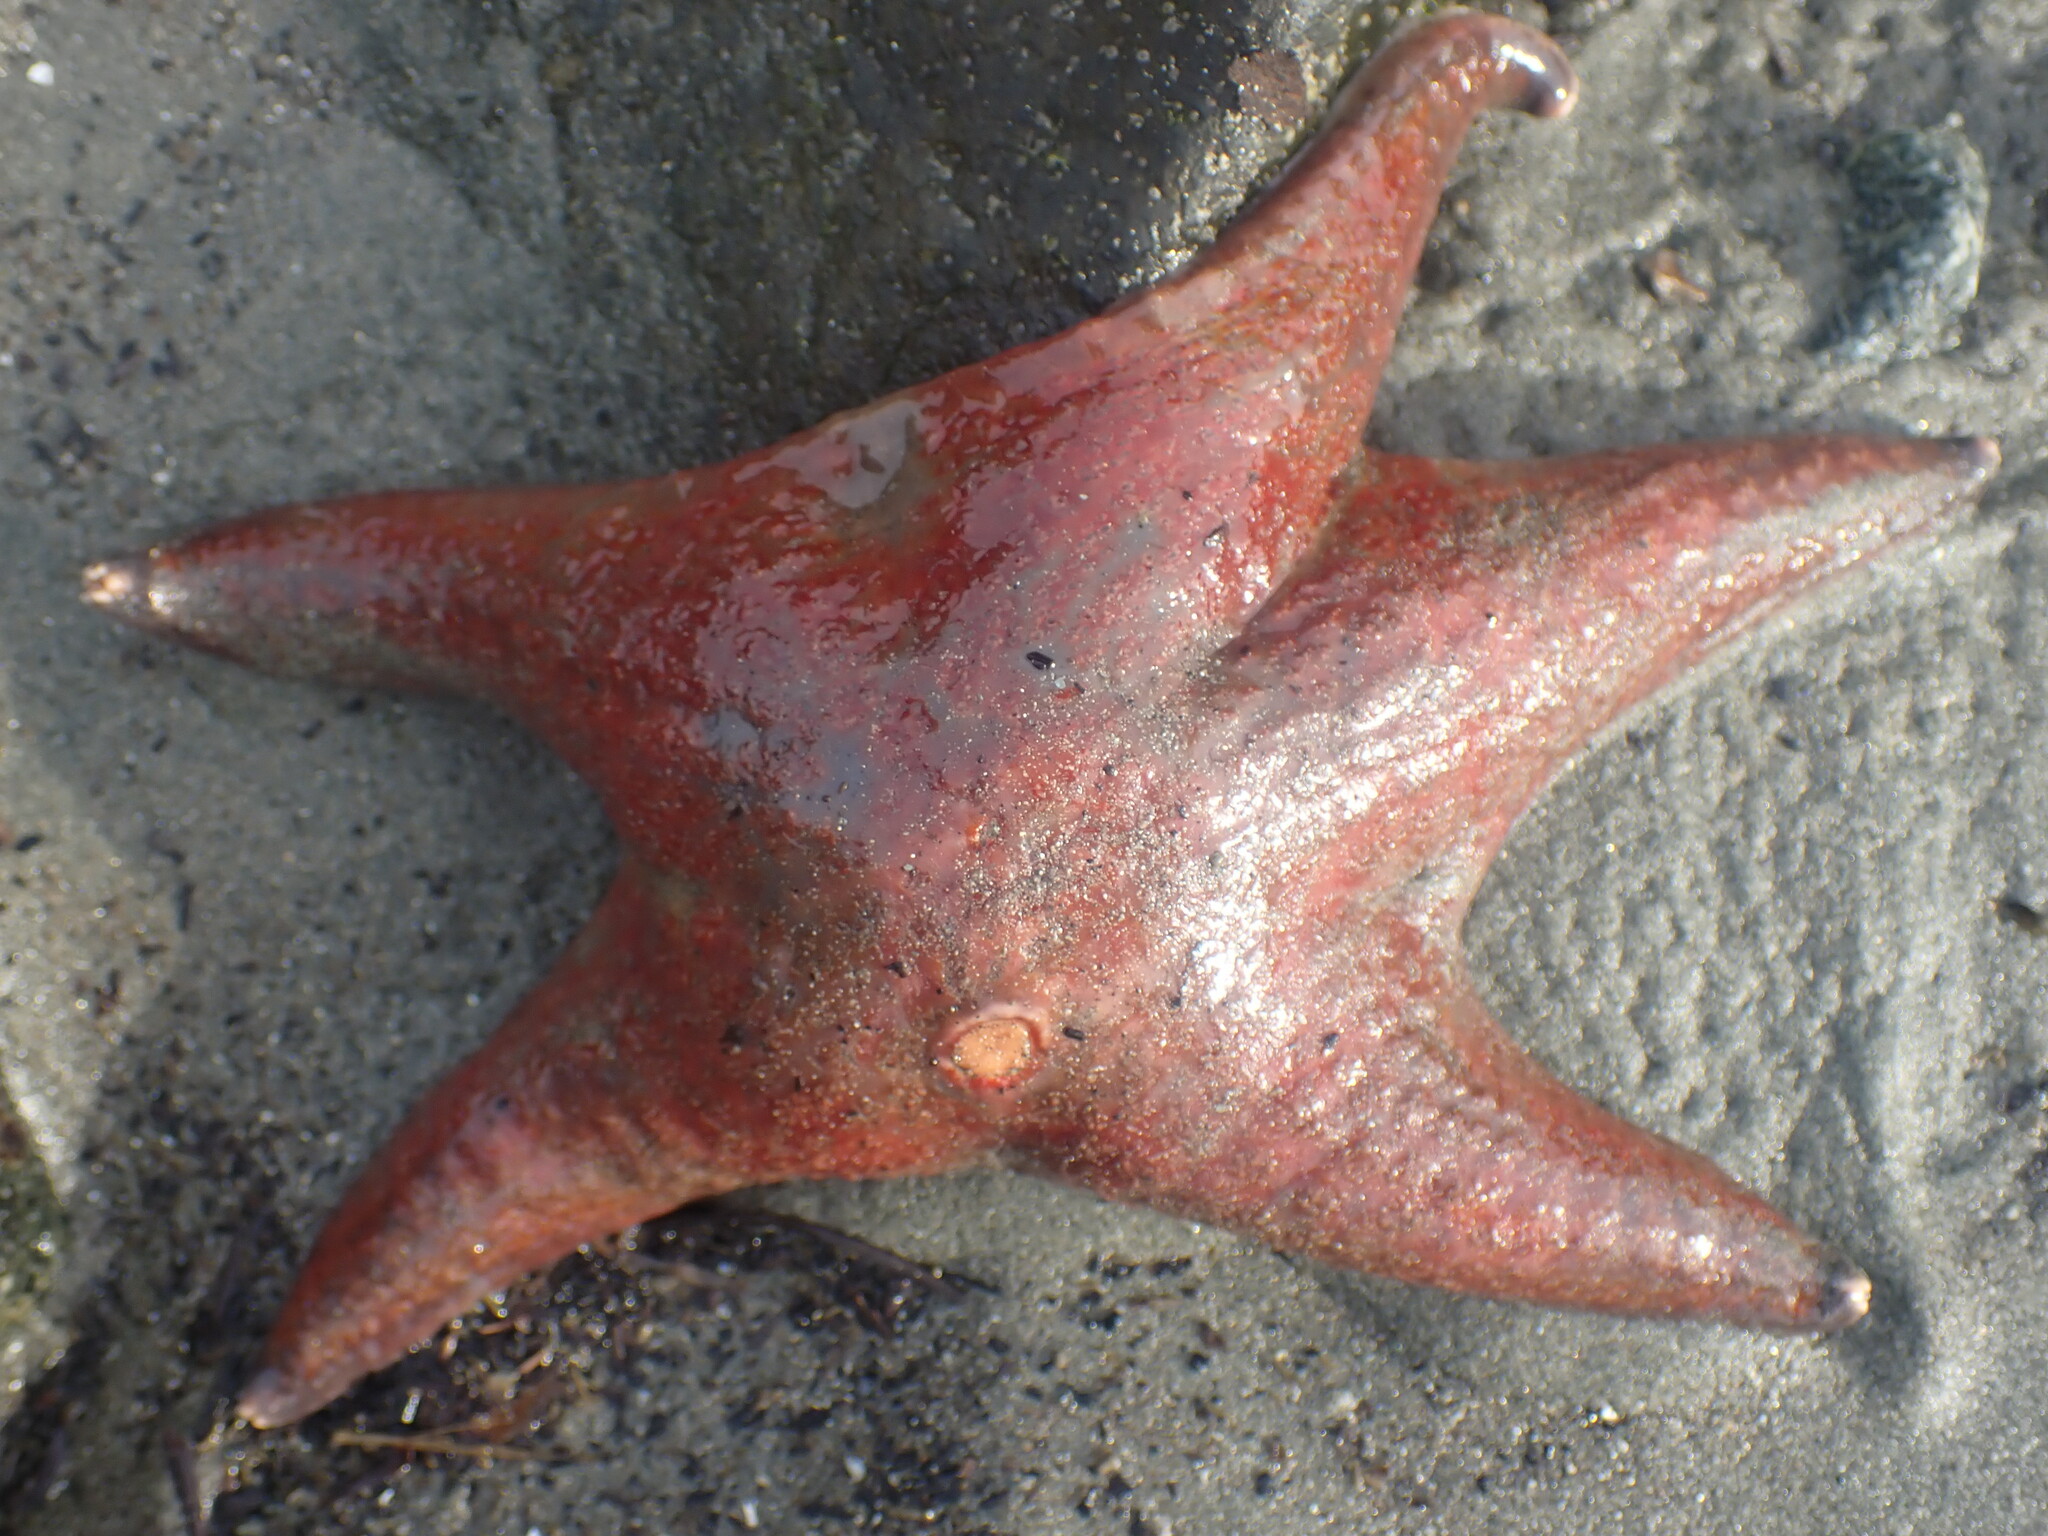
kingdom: Animalia
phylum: Echinodermata
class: Asteroidea
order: Valvatida
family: Asteropseidae
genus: Dermasterias
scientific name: Dermasterias imbricata
